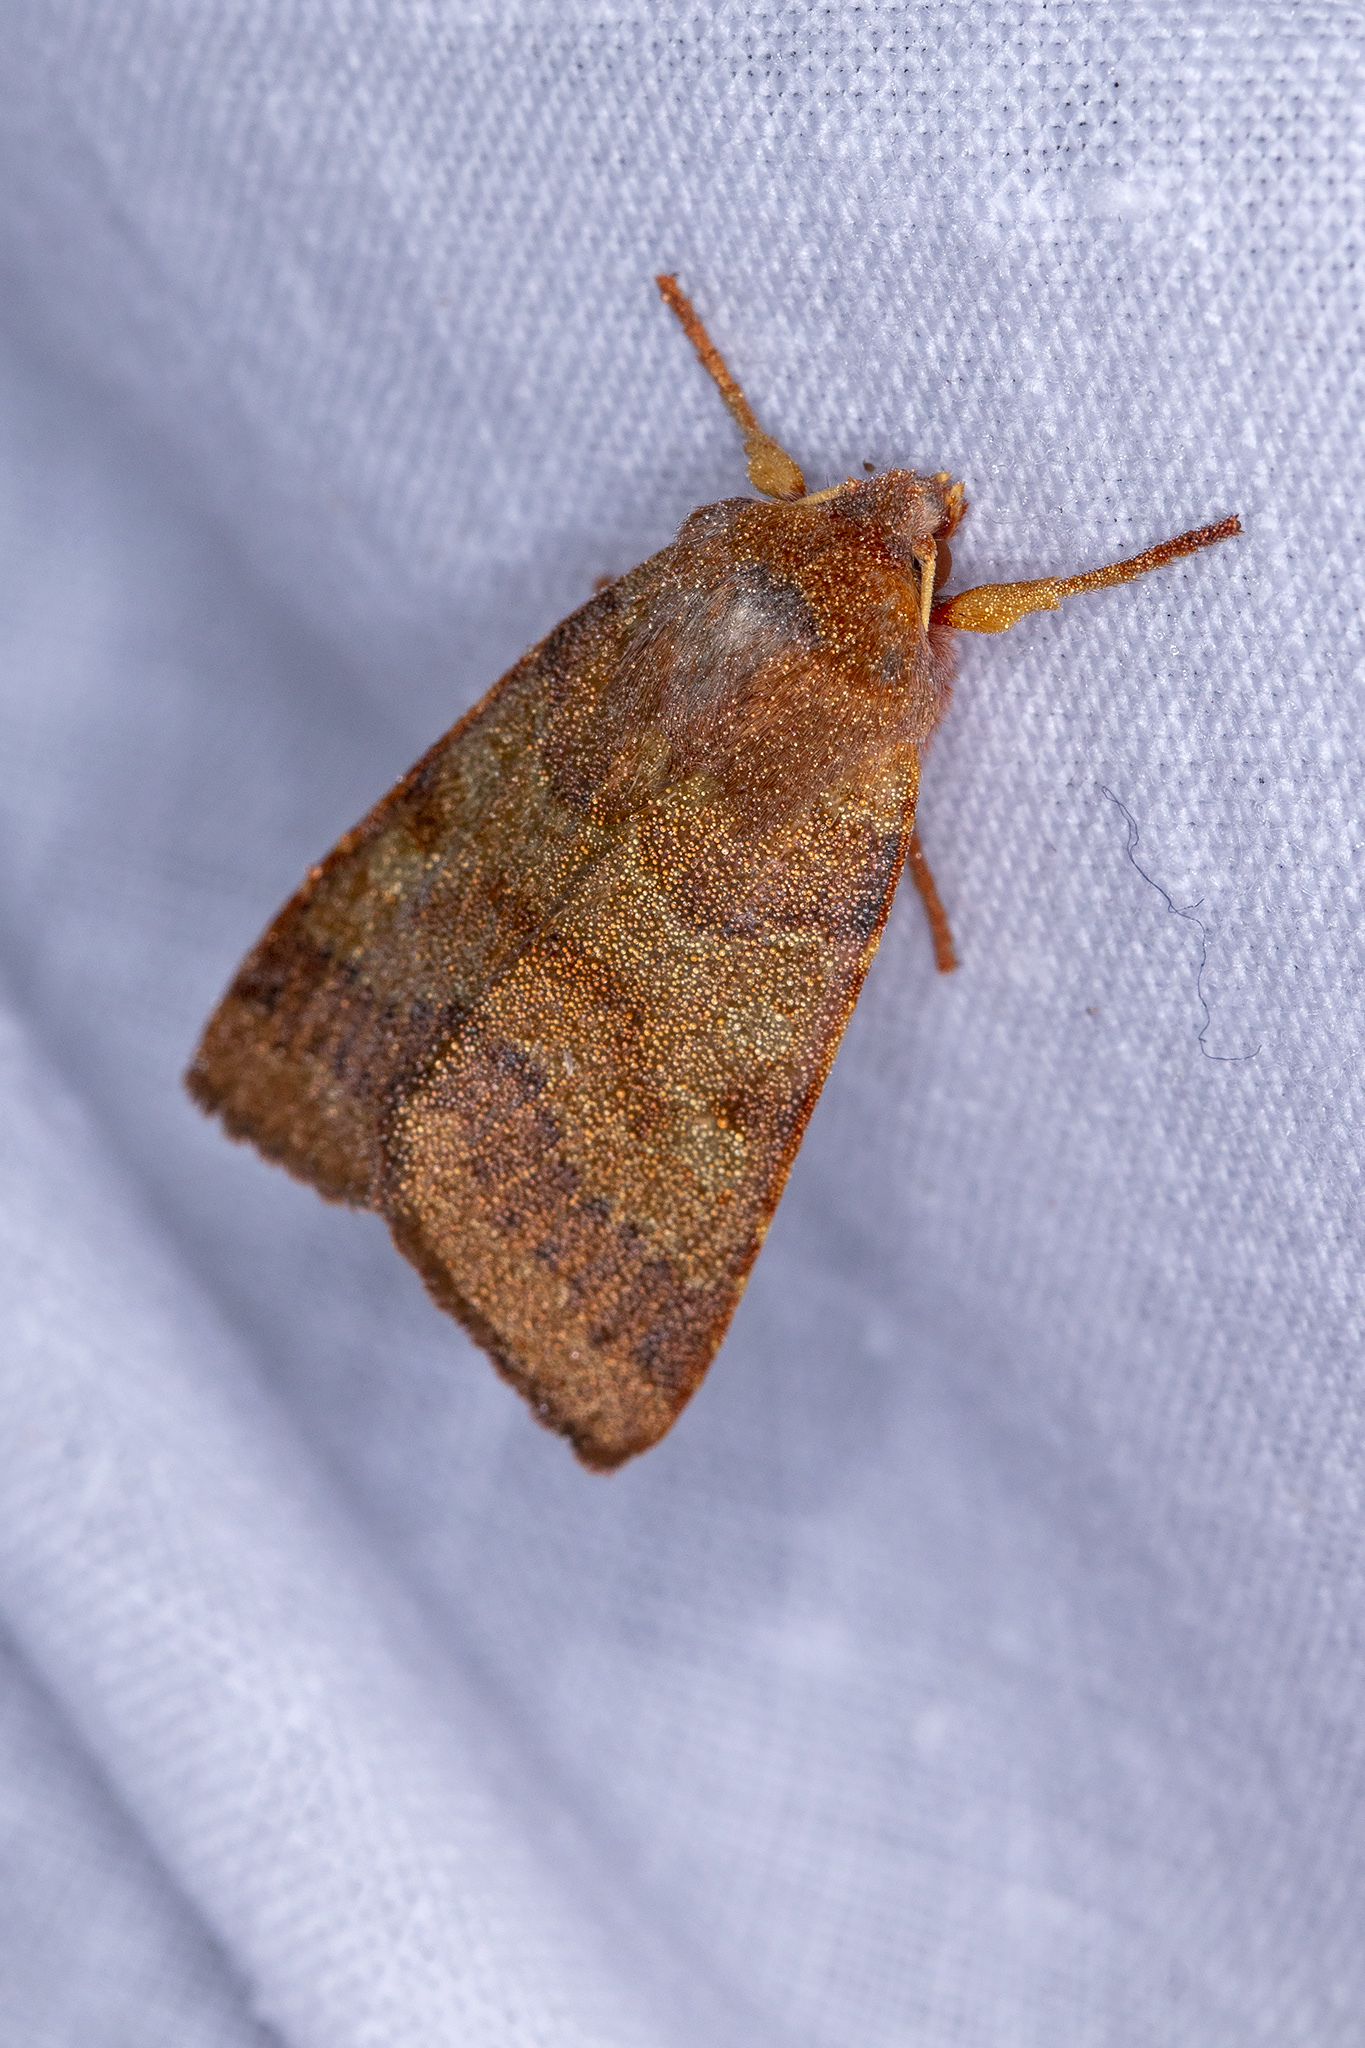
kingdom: Animalia
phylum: Arthropoda
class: Insecta
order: Lepidoptera
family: Noctuidae
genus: Agrochola
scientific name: Agrochola helvola
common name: Flounced chestnut
